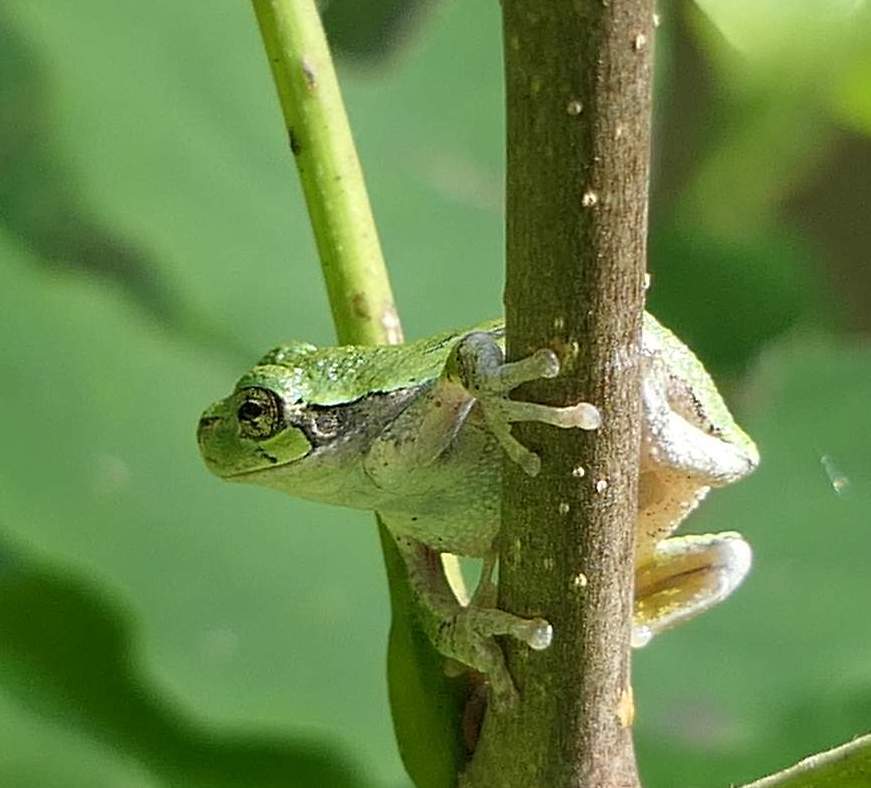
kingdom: Animalia
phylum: Chordata
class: Amphibia
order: Anura
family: Hylidae
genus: Dryophytes
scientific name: Dryophytes versicolor
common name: Gray treefrog
